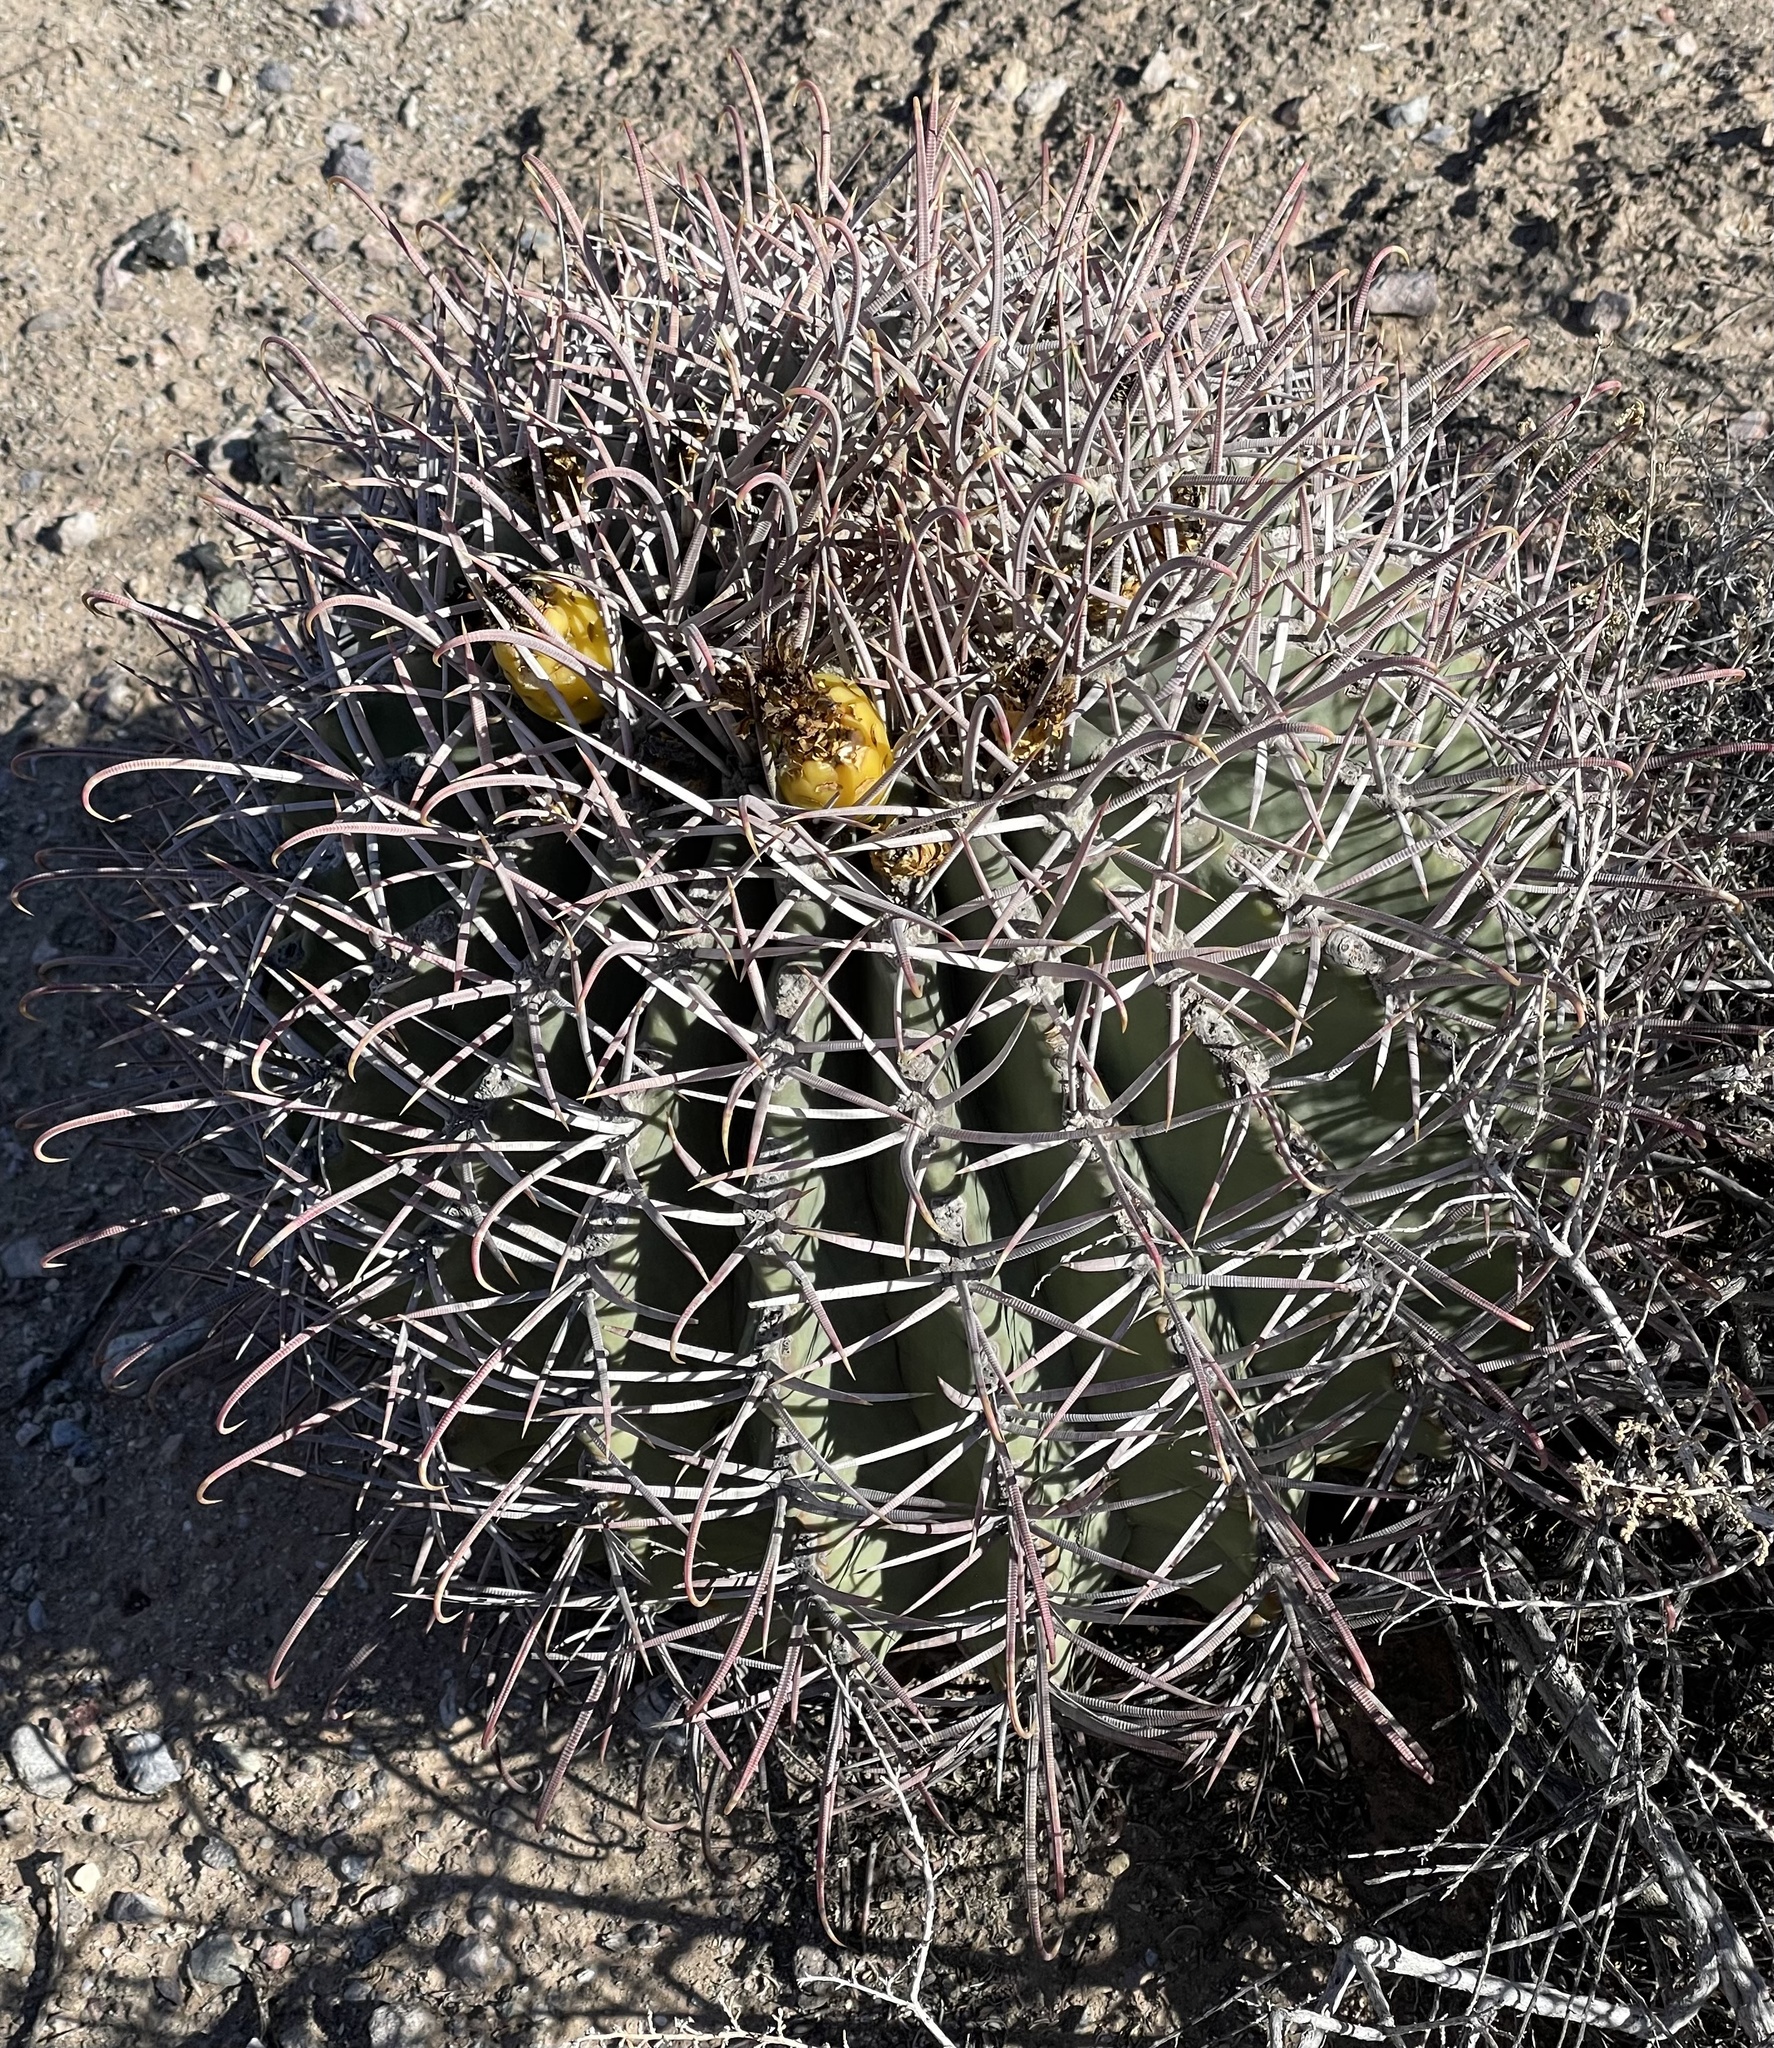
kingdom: Plantae
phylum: Tracheophyta
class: Magnoliopsida
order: Caryophyllales
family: Cactaceae
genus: Ferocactus
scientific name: Ferocactus wislizeni
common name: Candy barrel cactus
